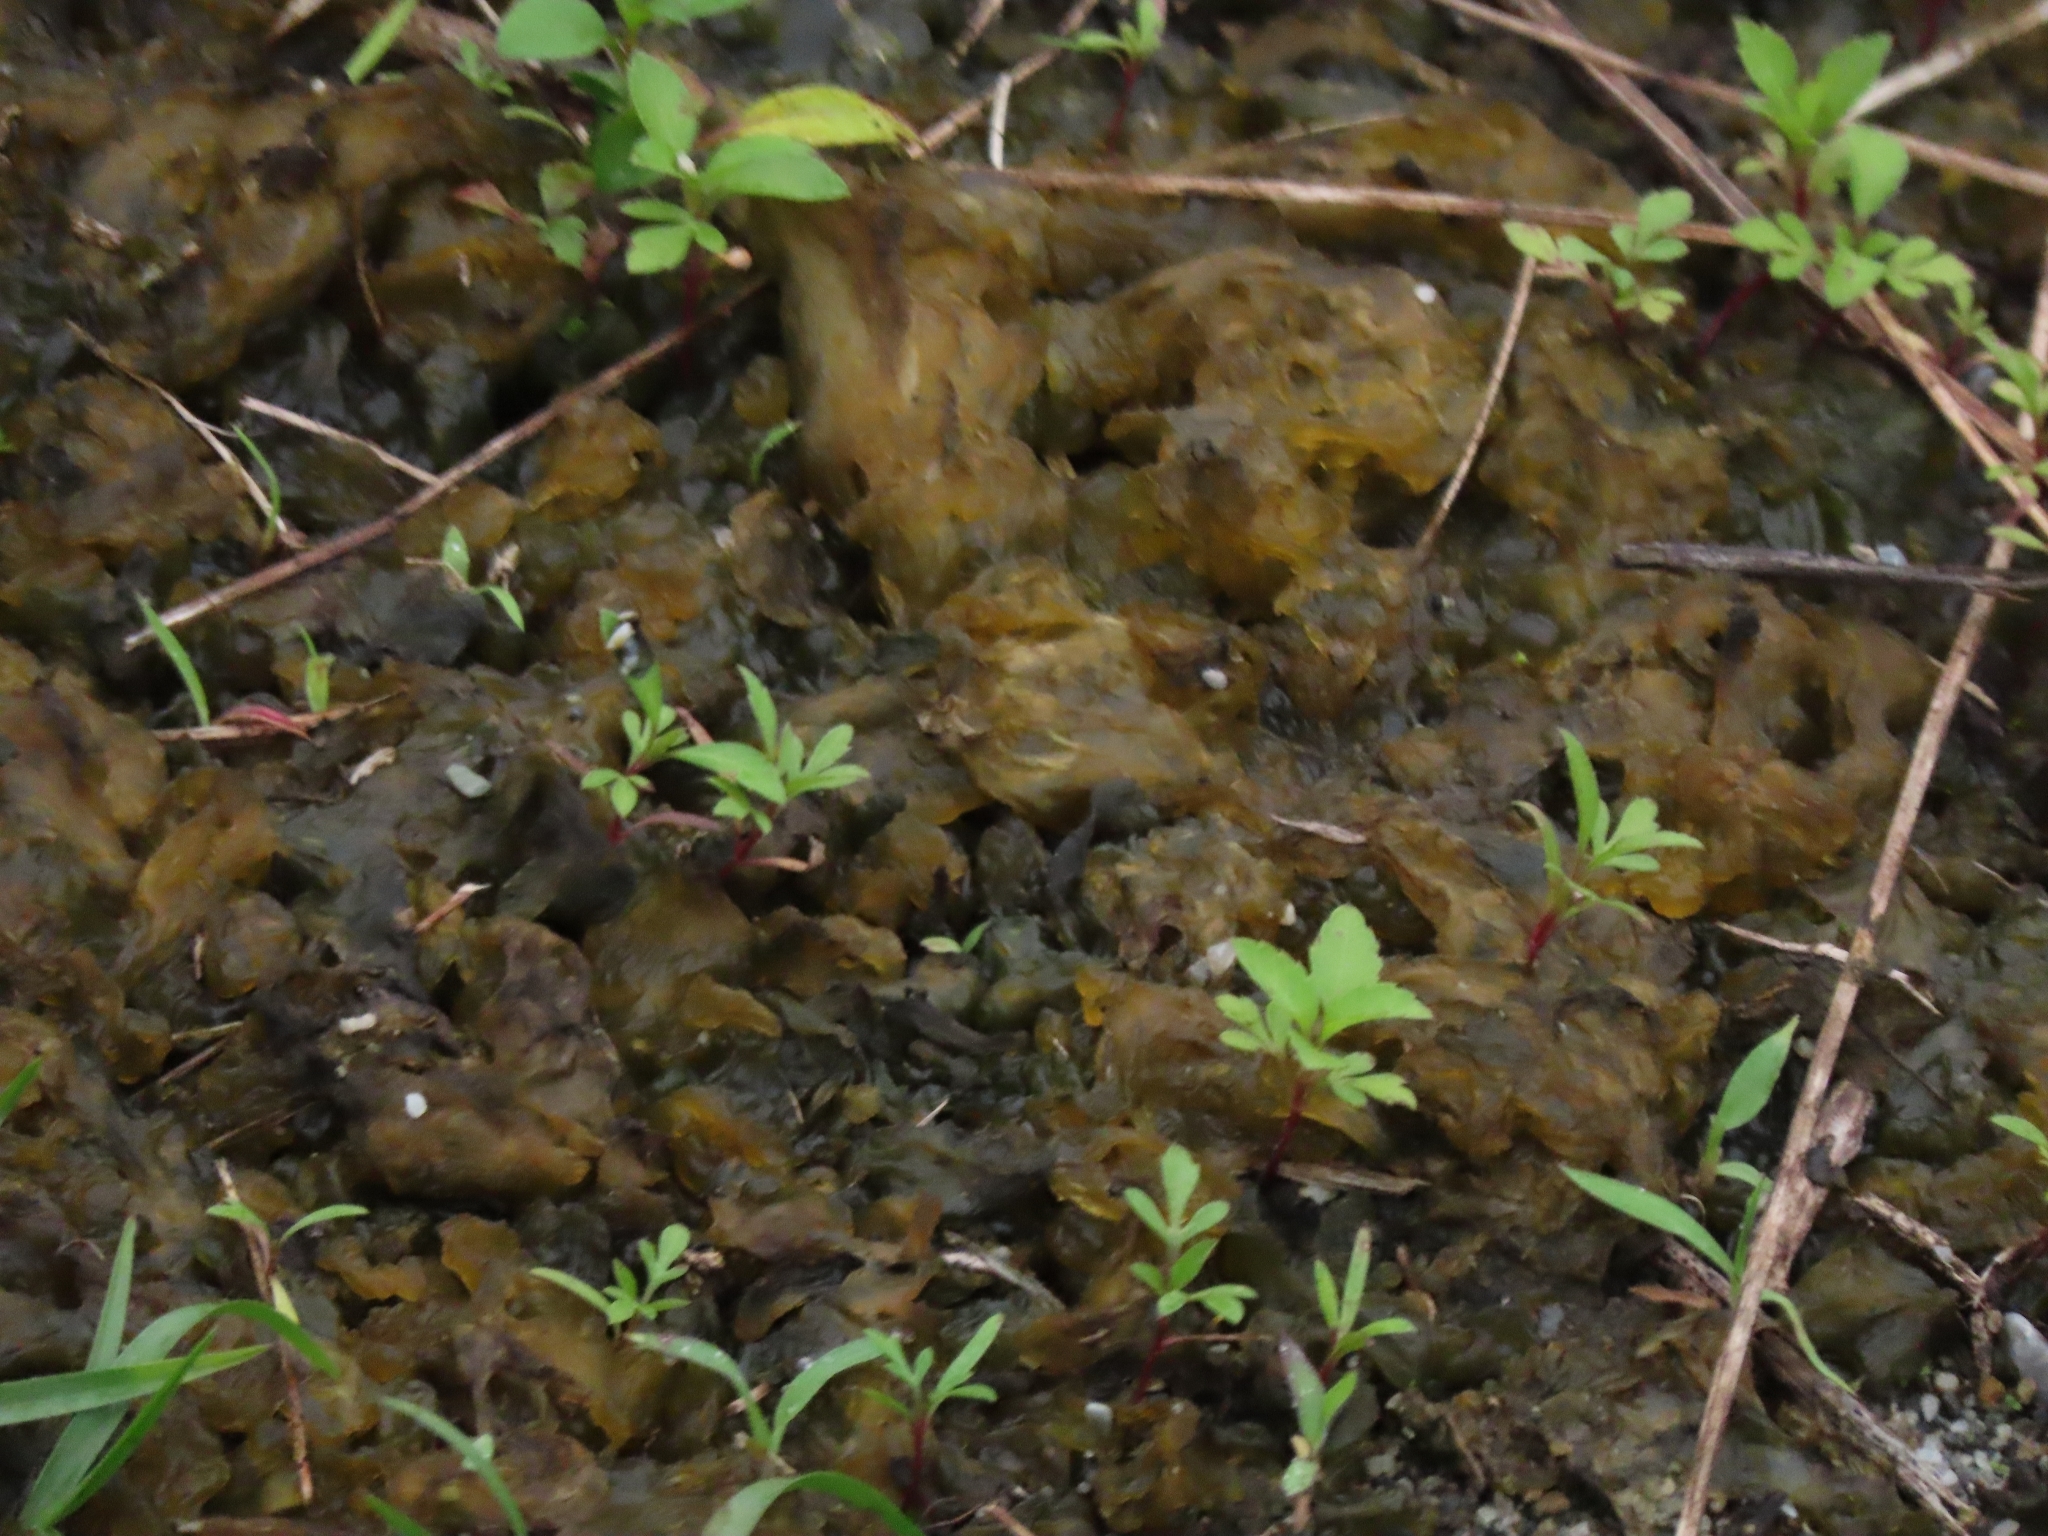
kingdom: Bacteria
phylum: Cyanobacteria
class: Cyanobacteriia
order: Cyanobacteriales
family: Nostocaceae
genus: Nostoc
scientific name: Nostoc commune
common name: Star jelly
